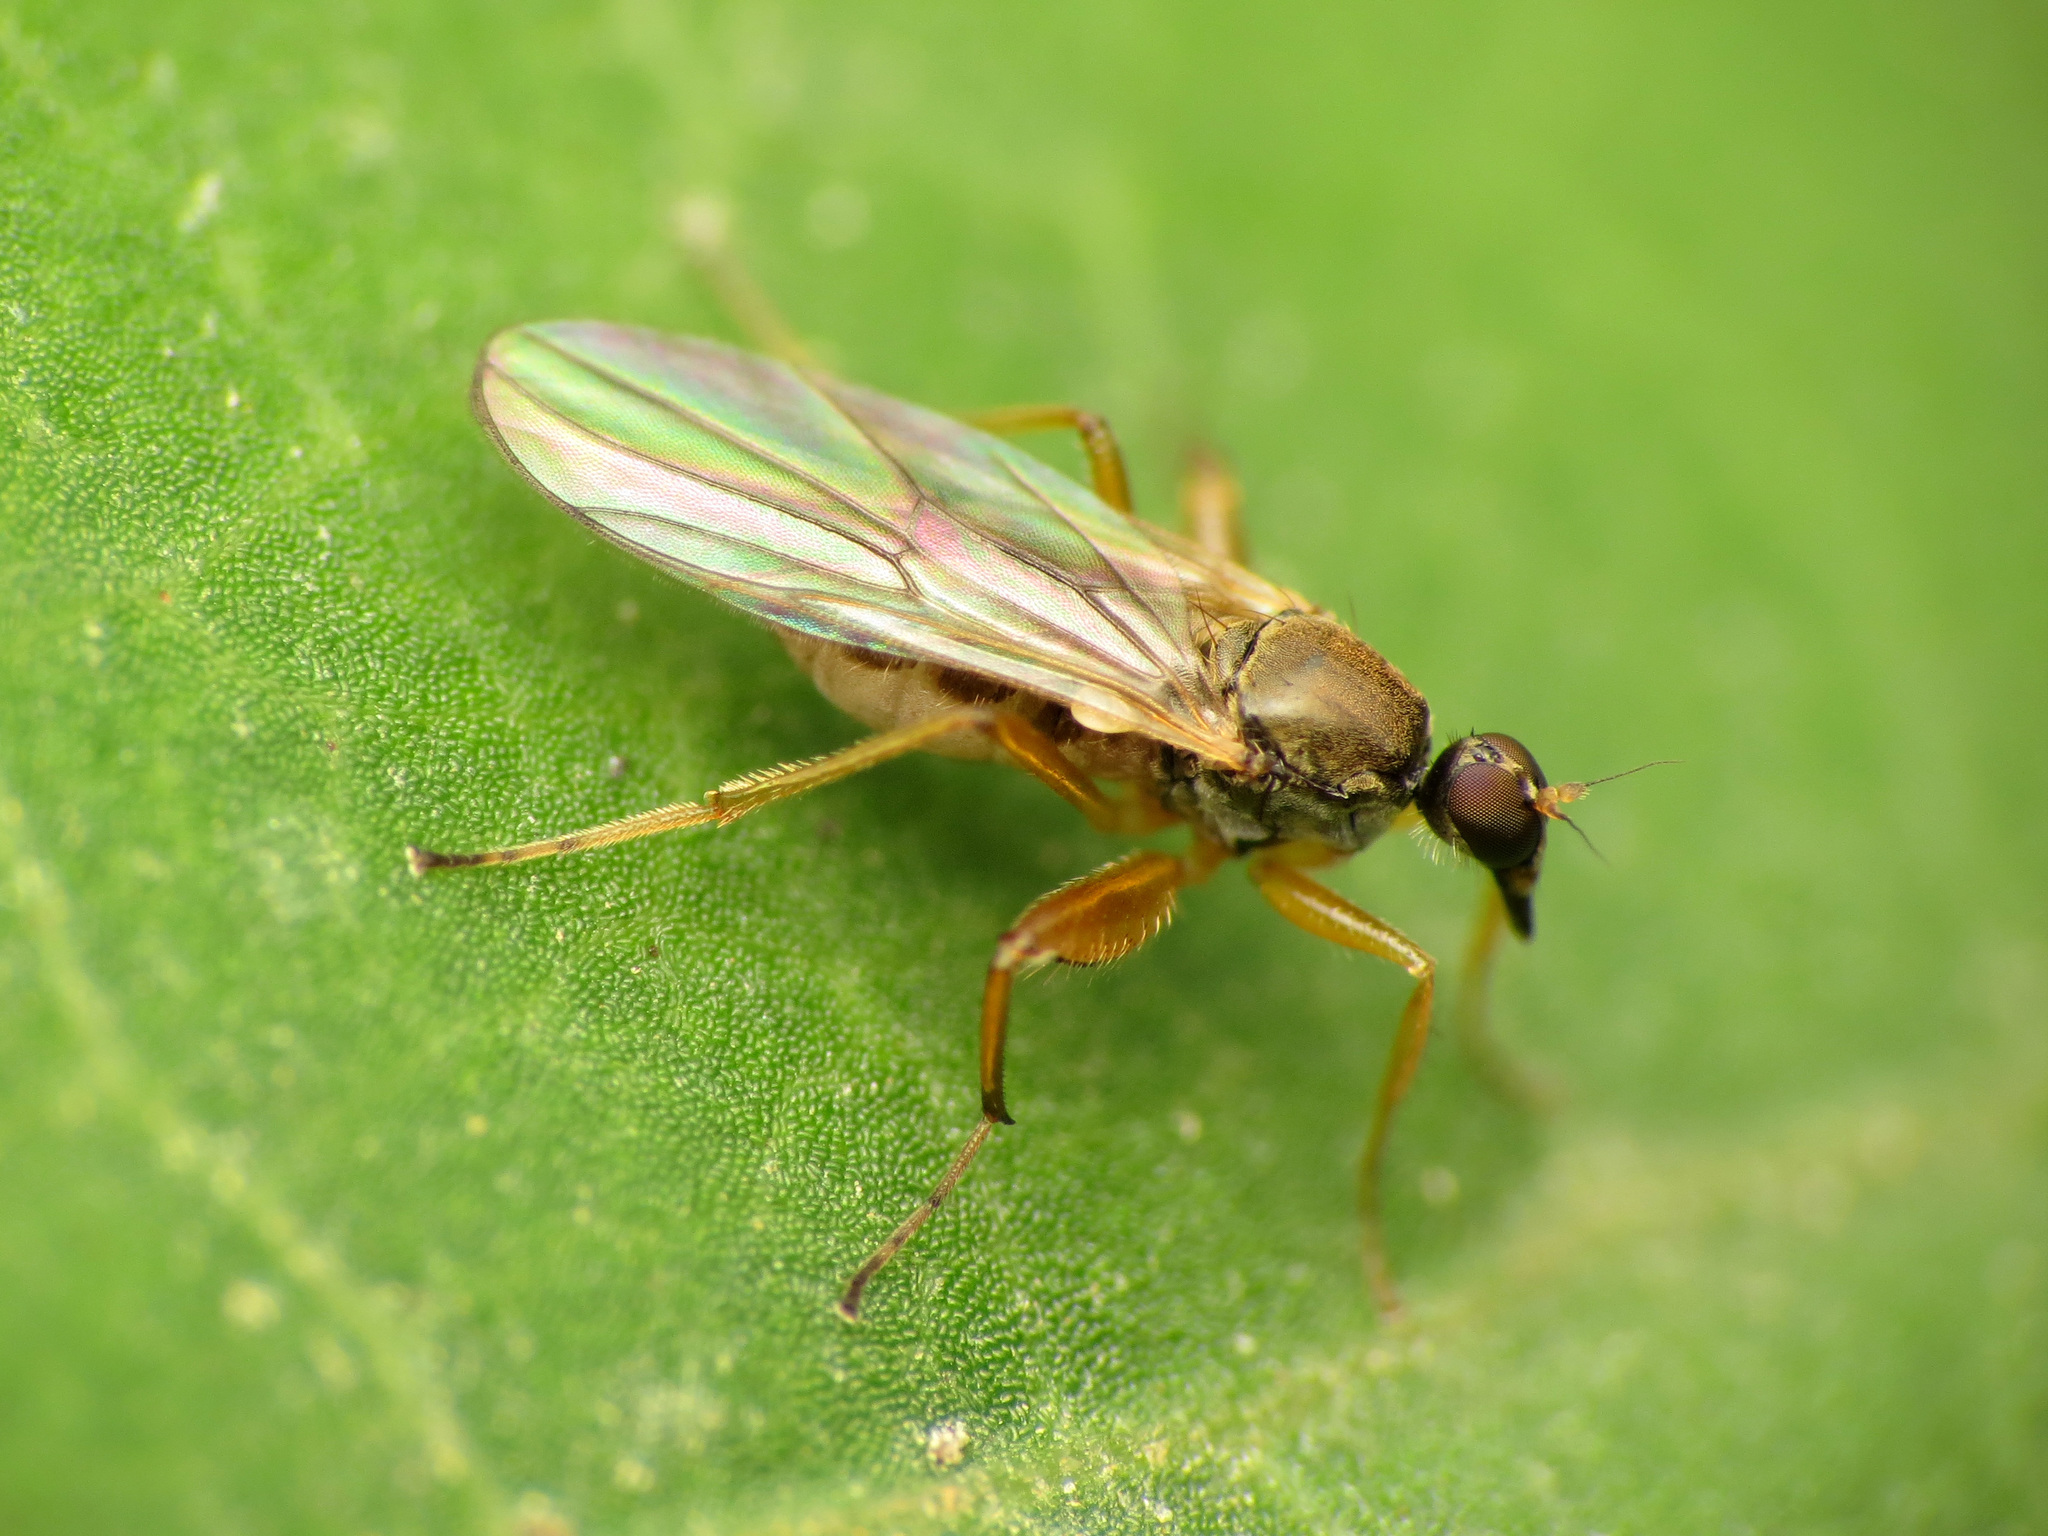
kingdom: Animalia
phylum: Arthropoda
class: Insecta
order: Diptera
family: Hybotidae
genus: Platypalpus
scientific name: Platypalpus discifer
